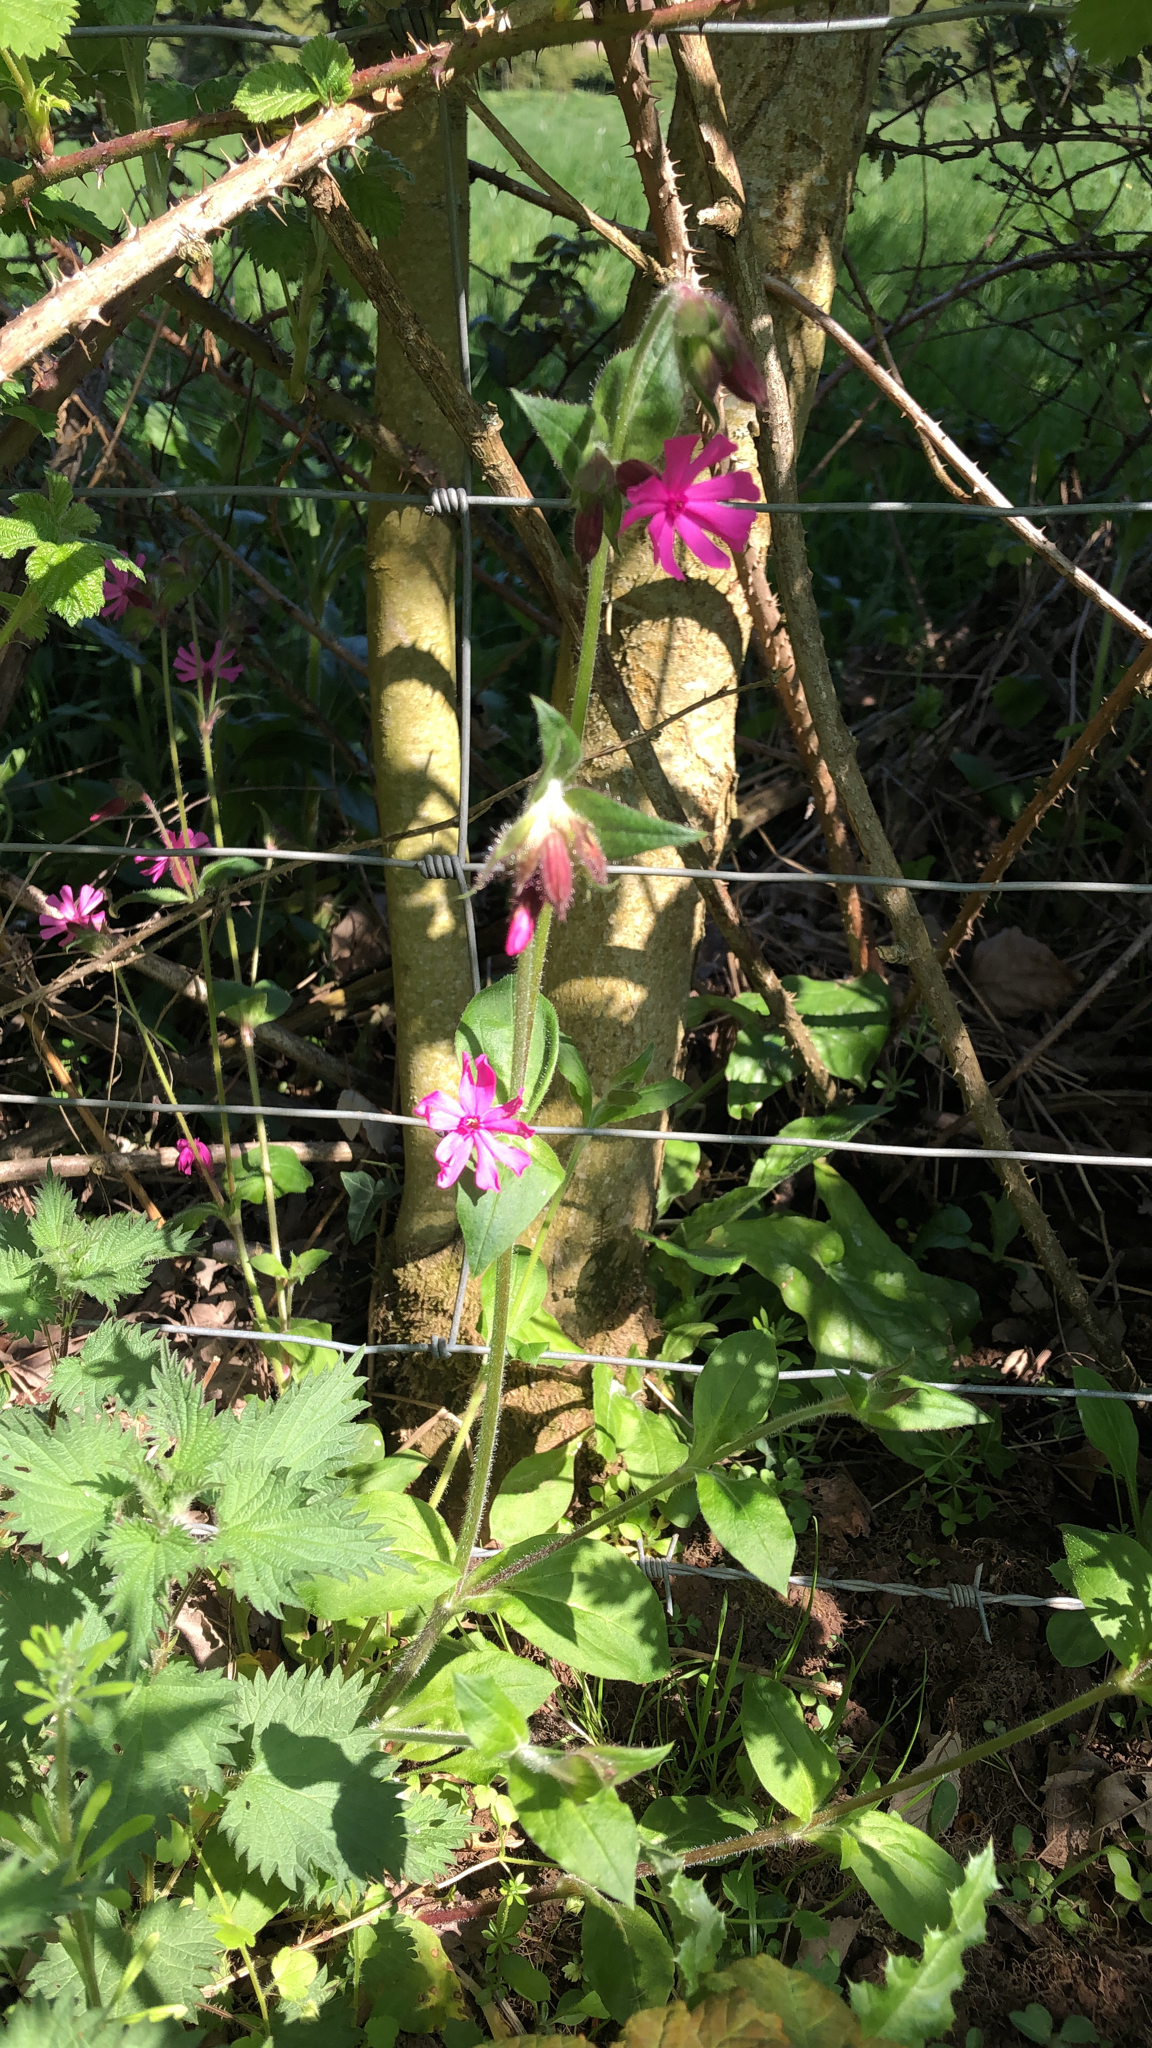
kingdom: Plantae
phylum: Tracheophyta
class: Magnoliopsida
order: Caryophyllales
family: Caryophyllaceae
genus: Silene
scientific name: Silene dioica
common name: Red campion
